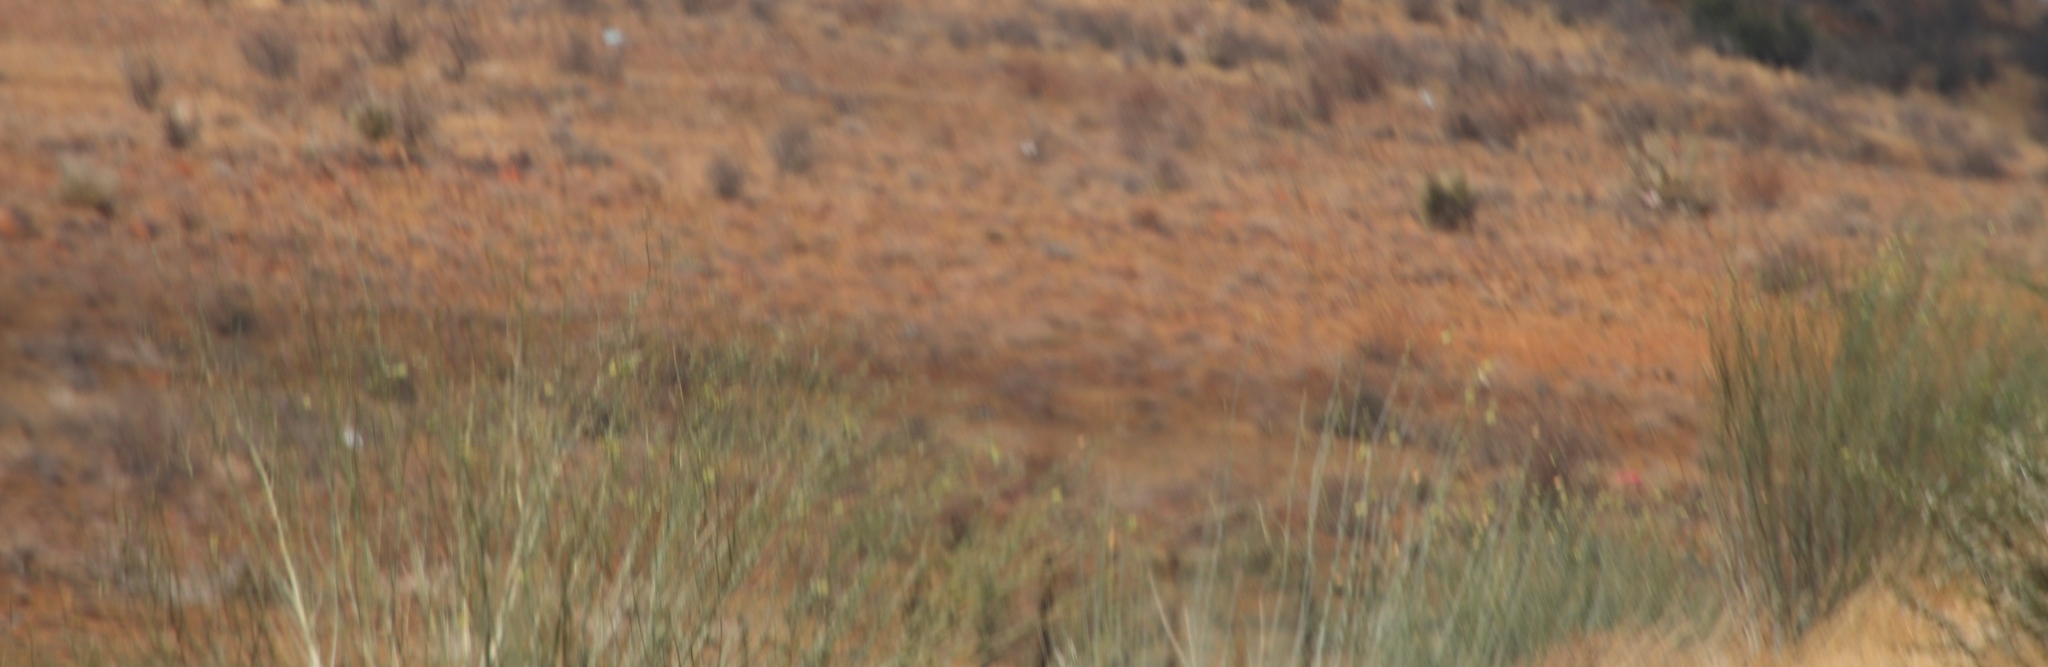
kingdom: Plantae
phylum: Tracheophyta
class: Magnoliopsida
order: Gentianales
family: Apocynaceae
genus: Gomphocarpus
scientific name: Gomphocarpus filiformis
